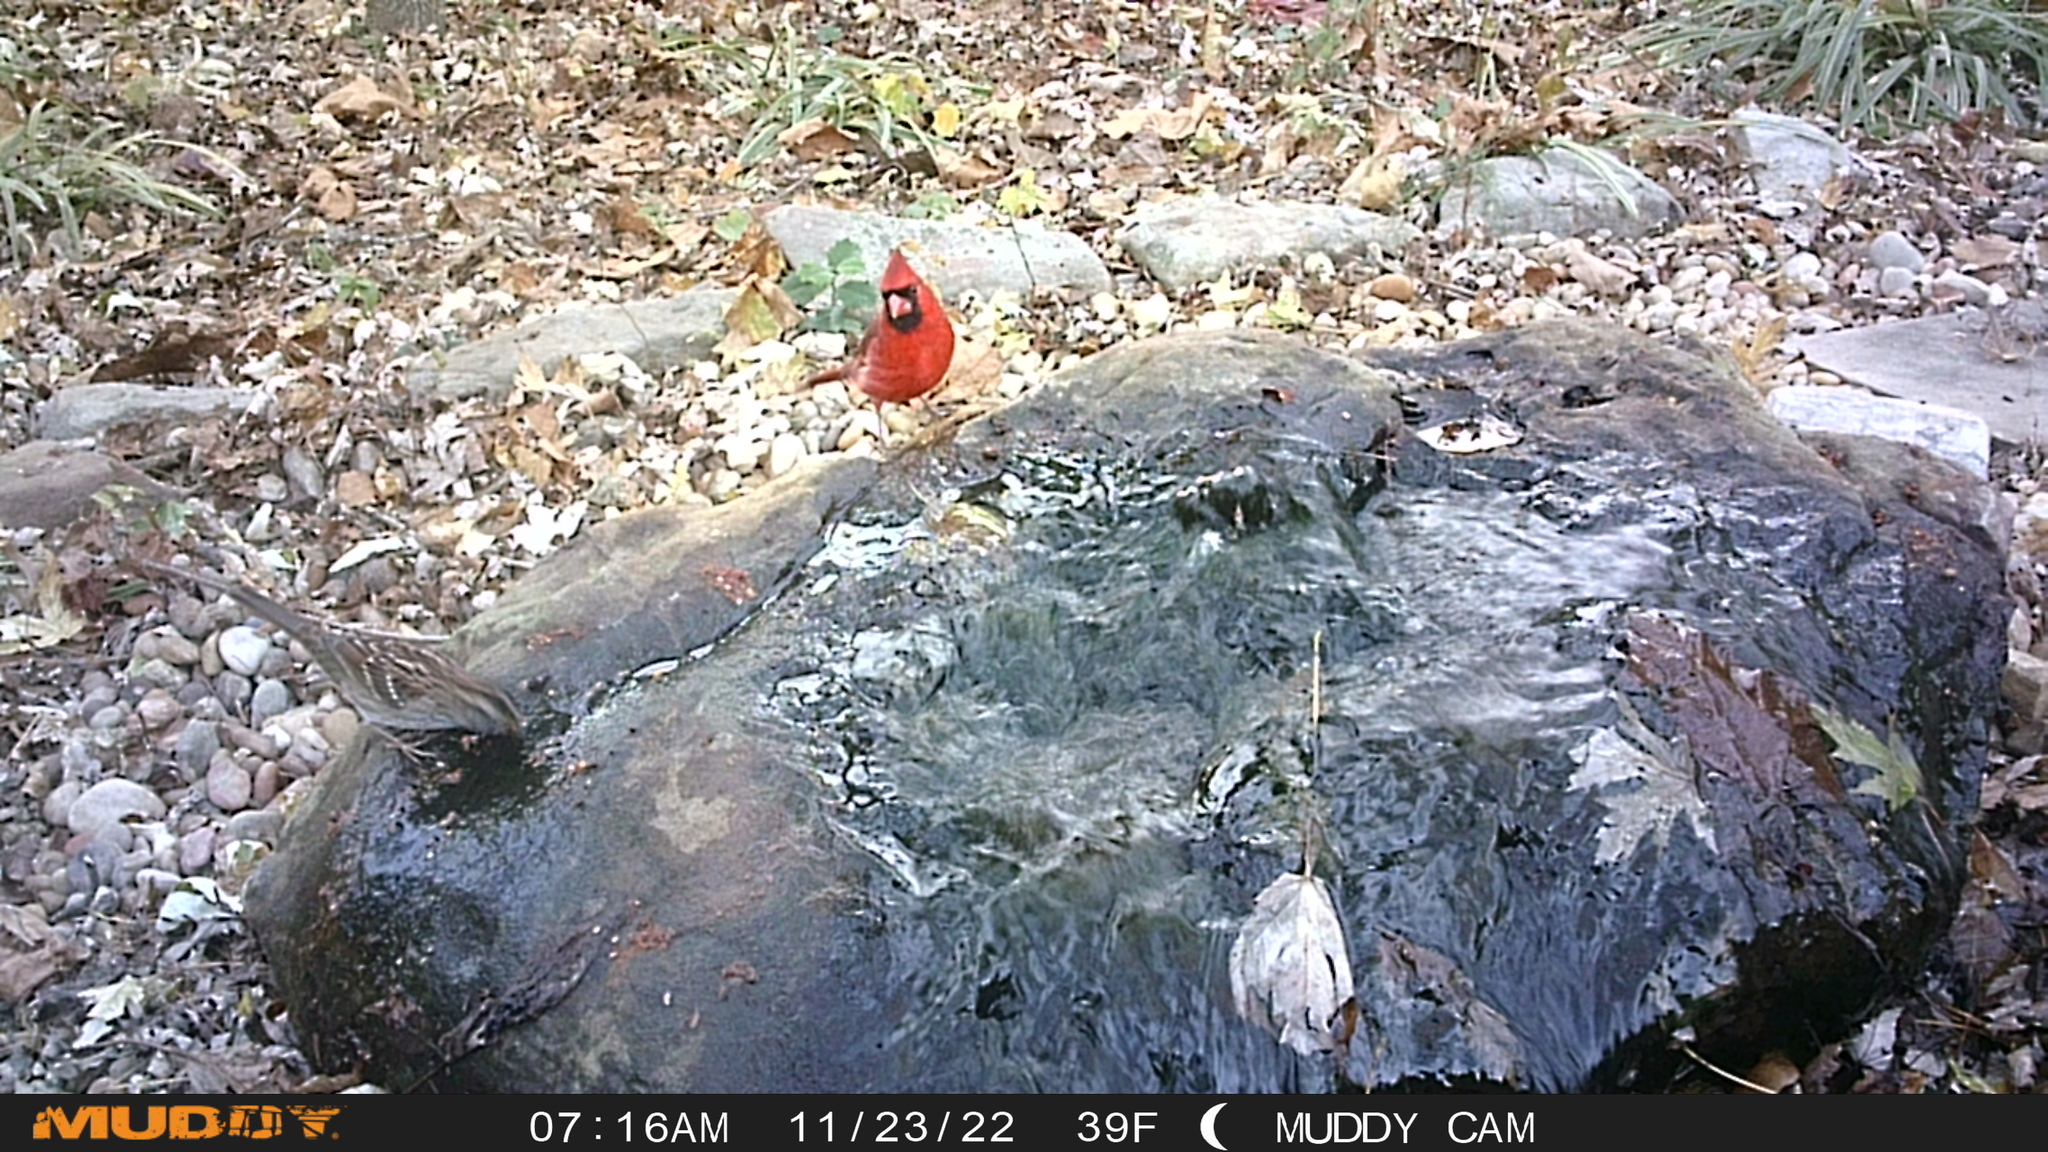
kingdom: Animalia
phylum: Chordata
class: Aves
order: Passeriformes
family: Cardinalidae
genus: Cardinalis
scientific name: Cardinalis cardinalis
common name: Northern cardinal
